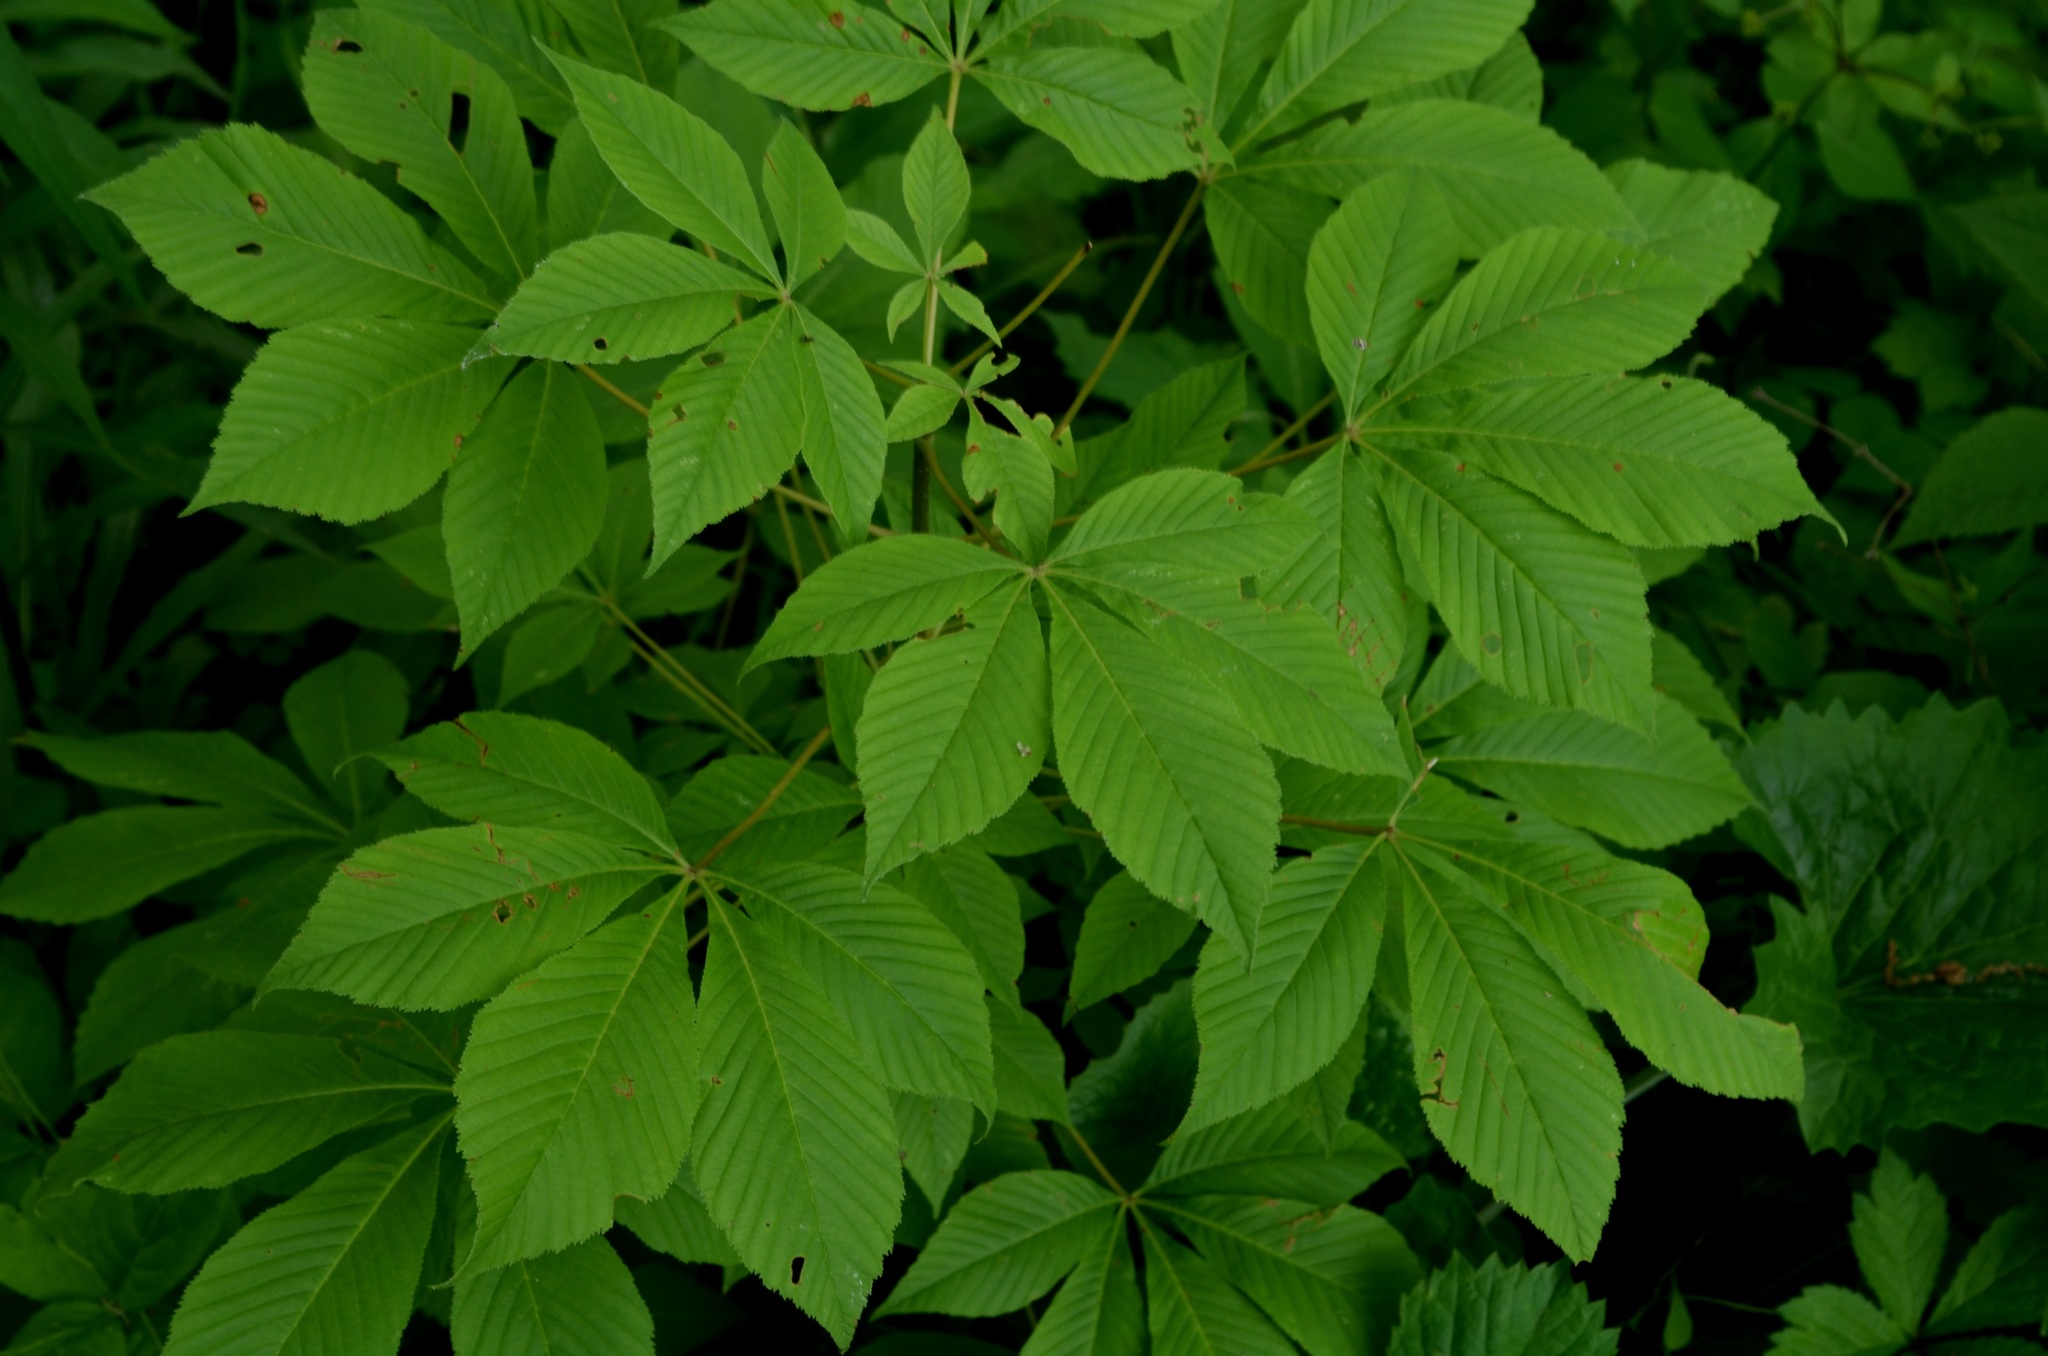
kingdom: Plantae
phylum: Tracheophyta
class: Magnoliopsida
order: Sapindales
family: Sapindaceae
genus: Aesculus
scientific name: Aesculus glabra
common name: Ohio buckeye
